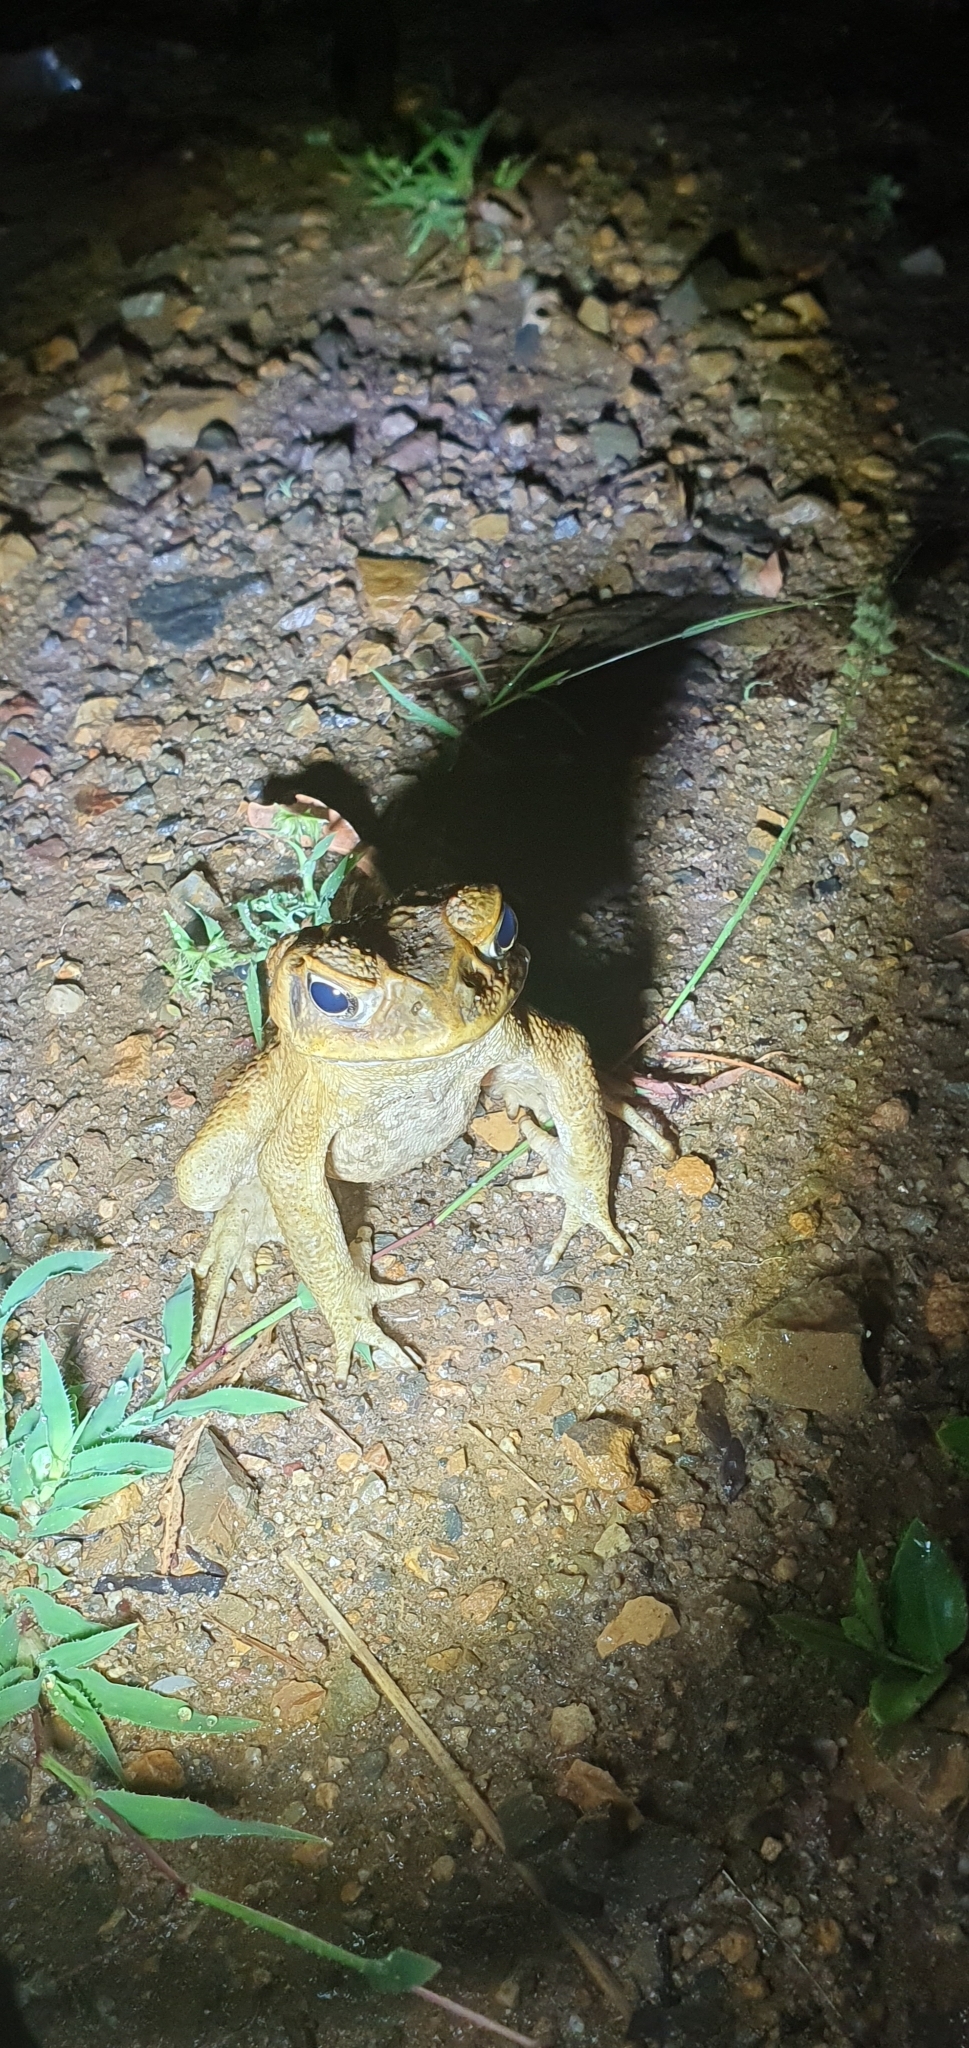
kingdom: Animalia
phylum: Chordata
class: Amphibia
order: Anura
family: Bufonidae
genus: Rhinella
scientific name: Rhinella marina
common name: Cane toad
